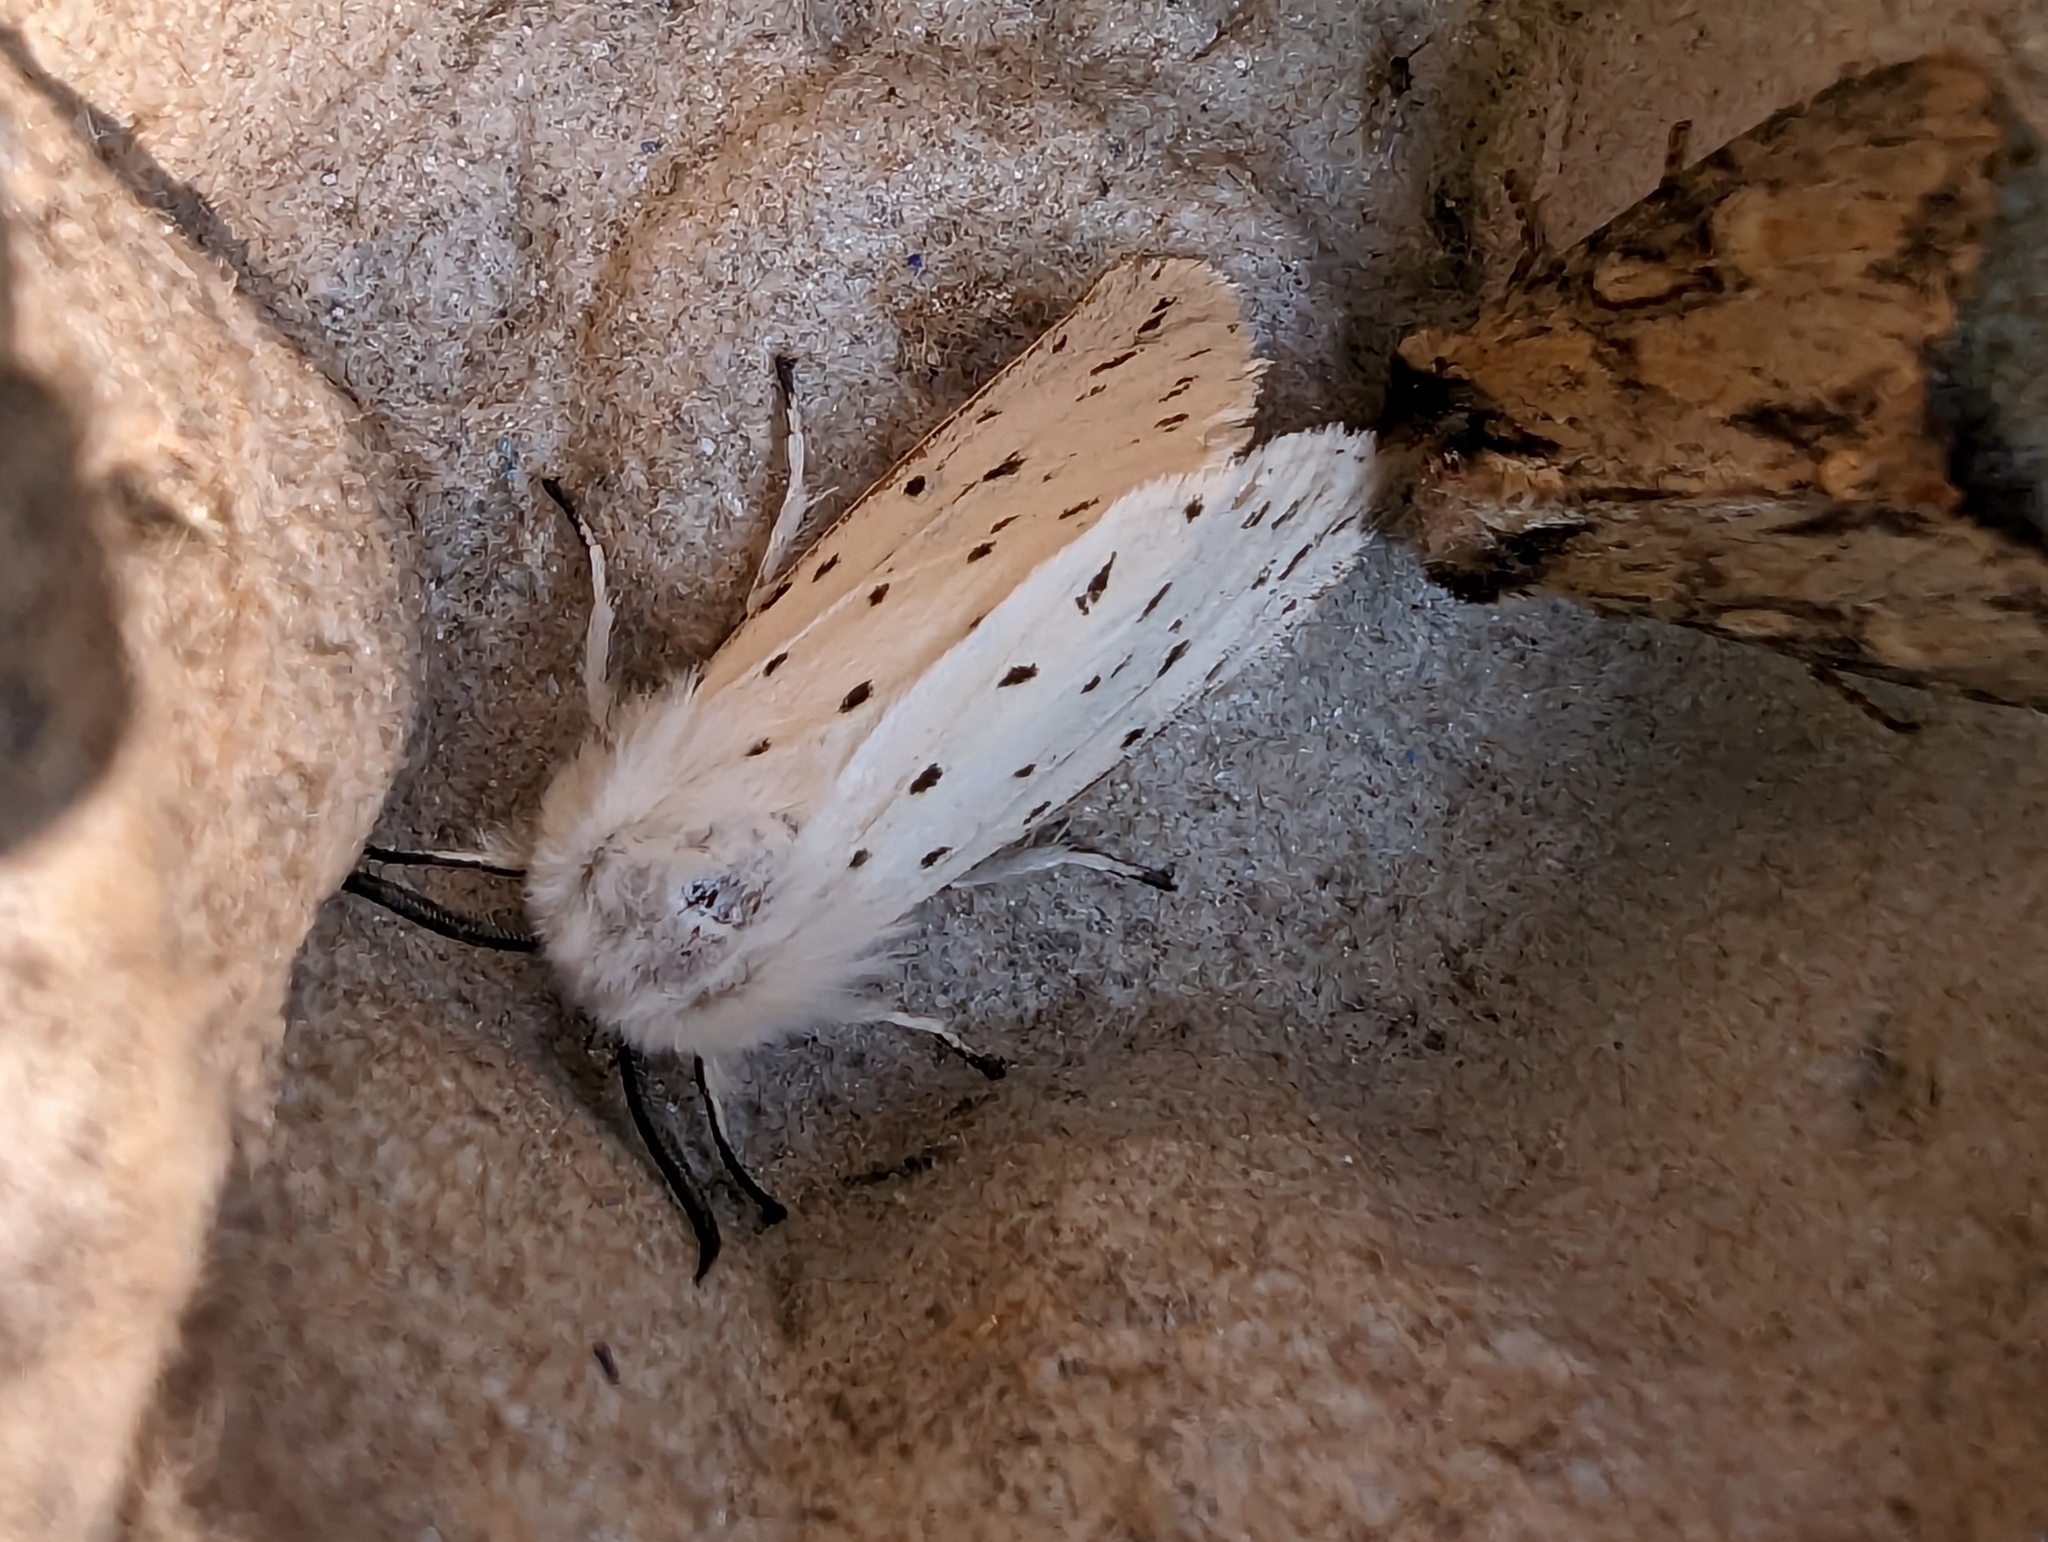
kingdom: Animalia
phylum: Arthropoda
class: Insecta
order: Lepidoptera
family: Erebidae
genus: Spilosoma
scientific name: Spilosoma lubricipeda
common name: White ermine
